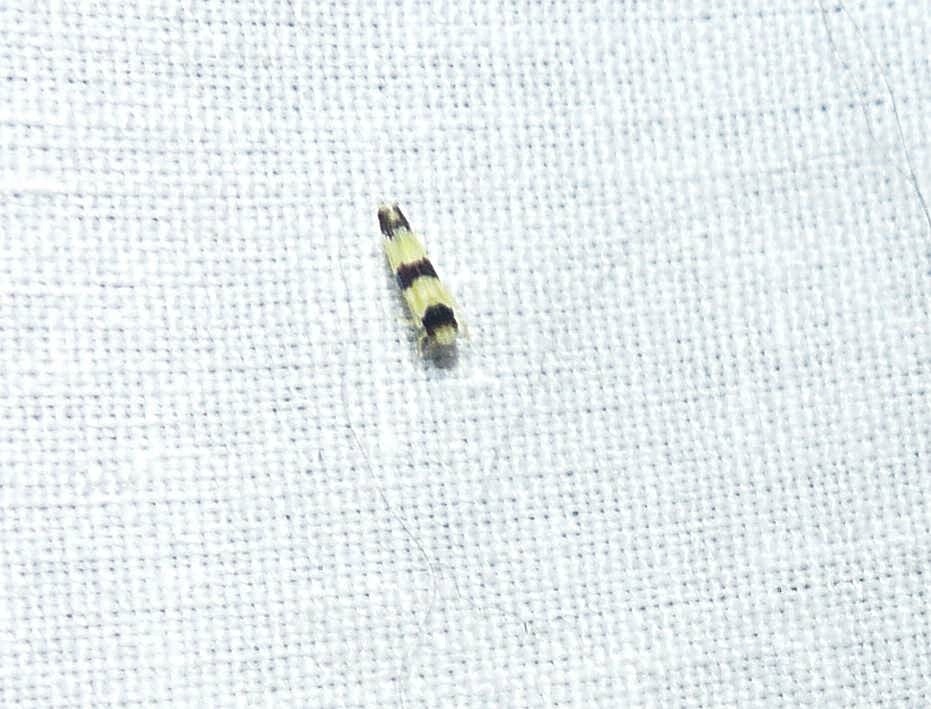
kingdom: Animalia
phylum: Arthropoda
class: Insecta
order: Hemiptera
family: Cicadellidae
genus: Erythroneura
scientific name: Erythroneura tricincta
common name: The threebanded grape leafhopper
